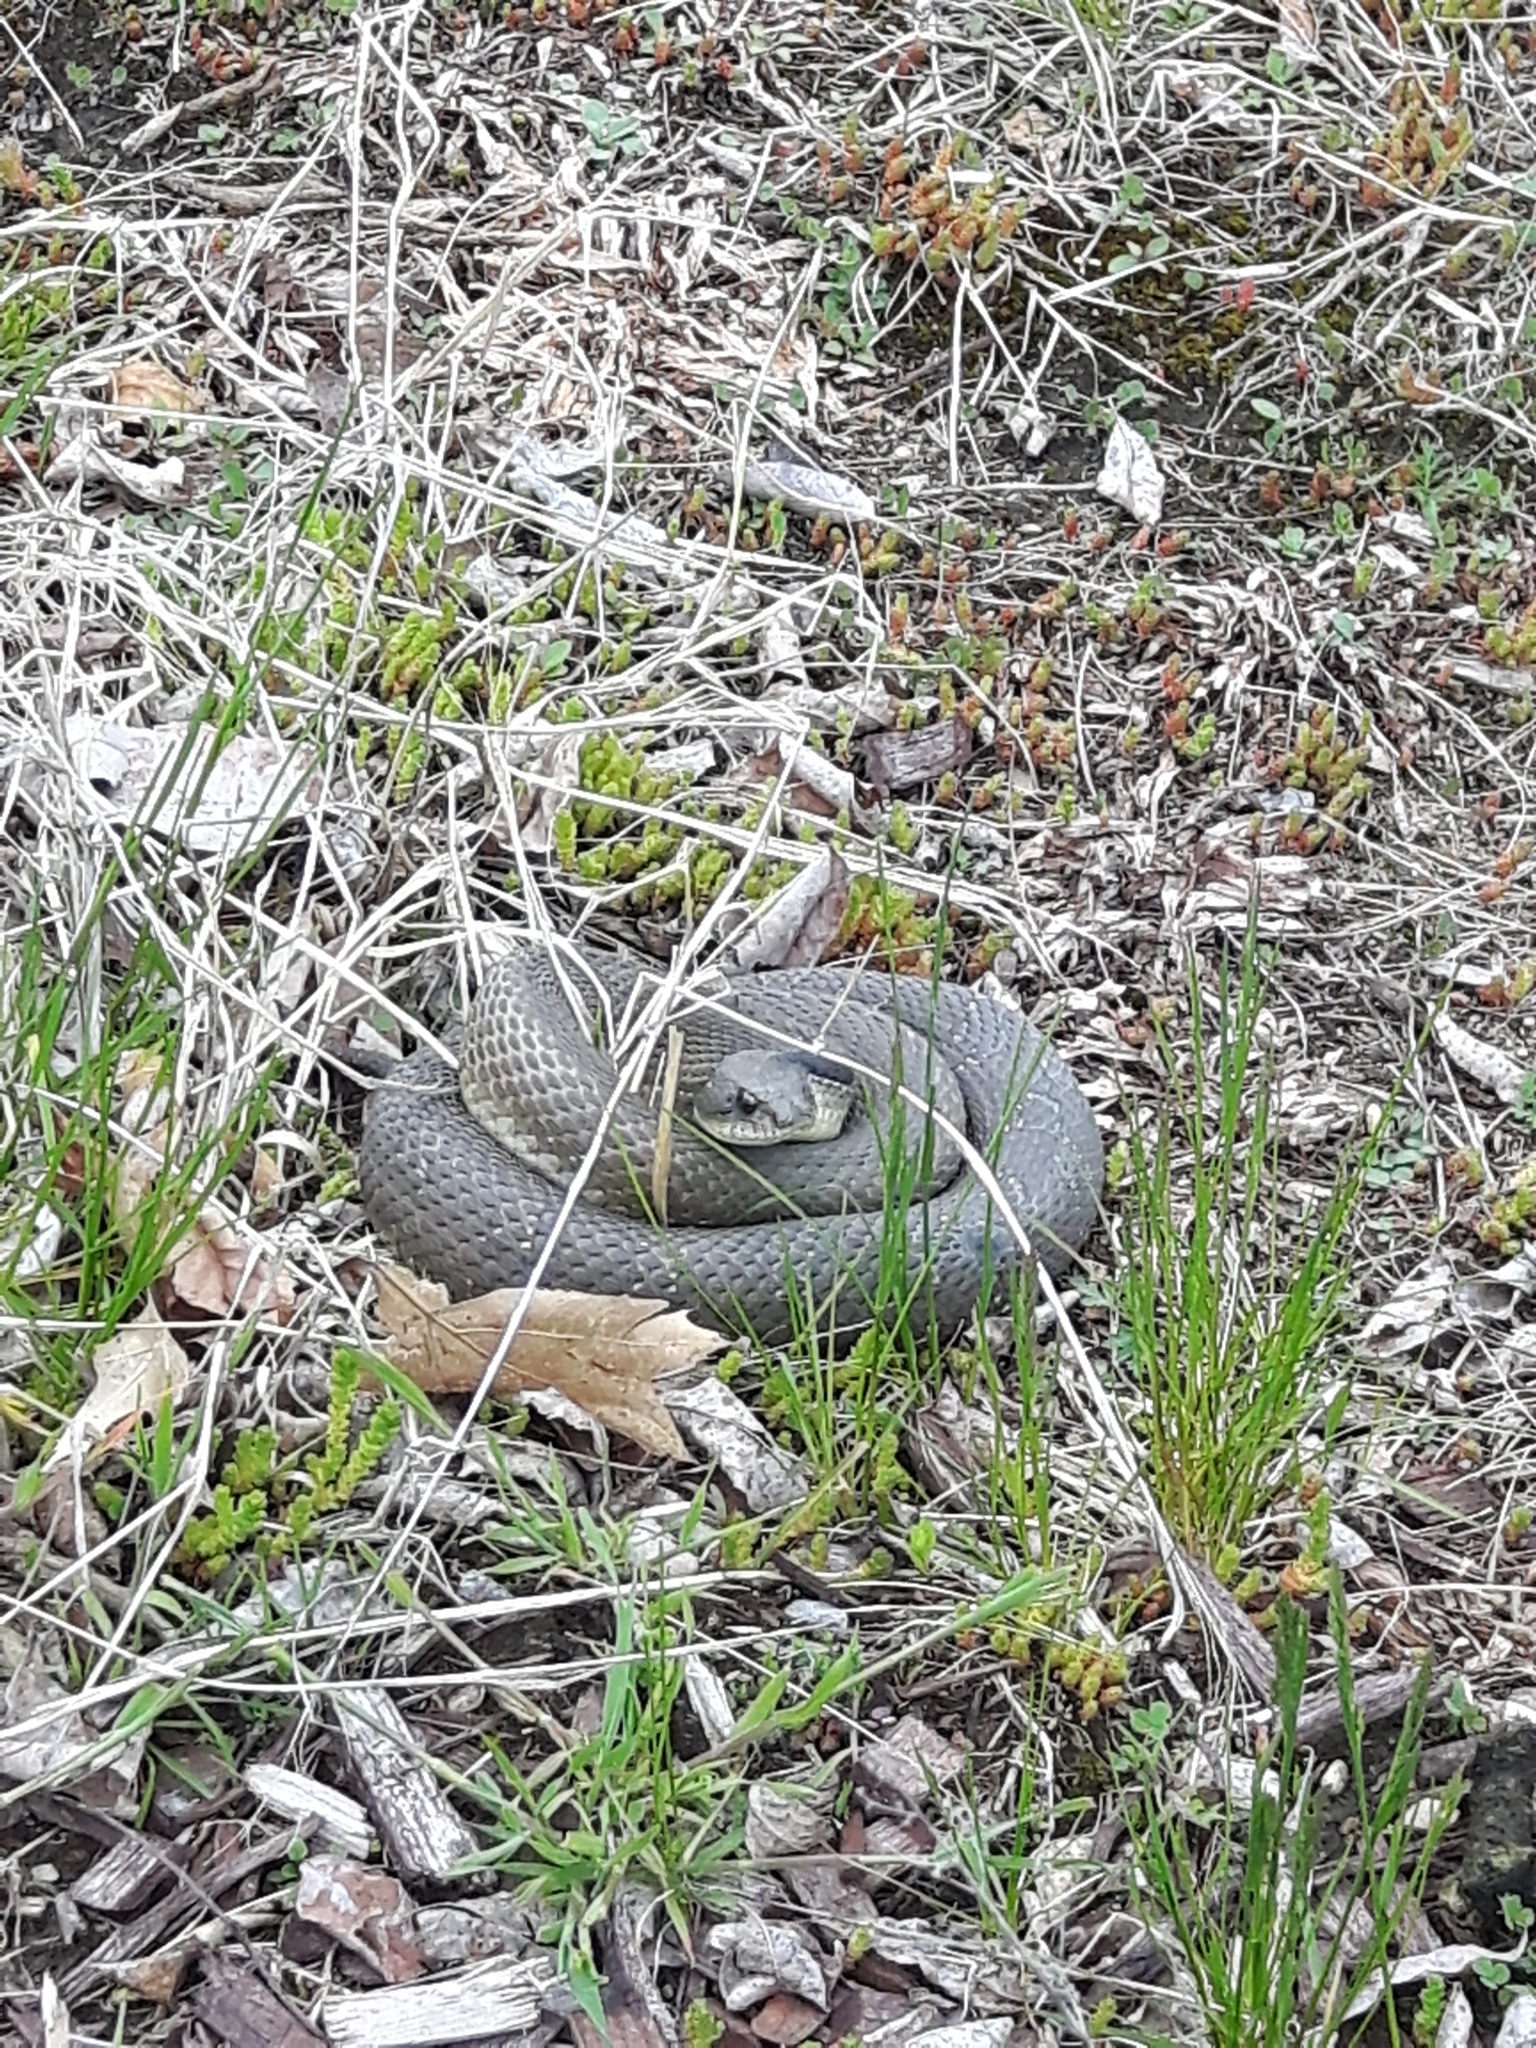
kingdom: Animalia
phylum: Chordata
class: Squamata
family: Colubridae
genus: Heterodon
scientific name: Heterodon platirhinos
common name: Eastern hognose snake
